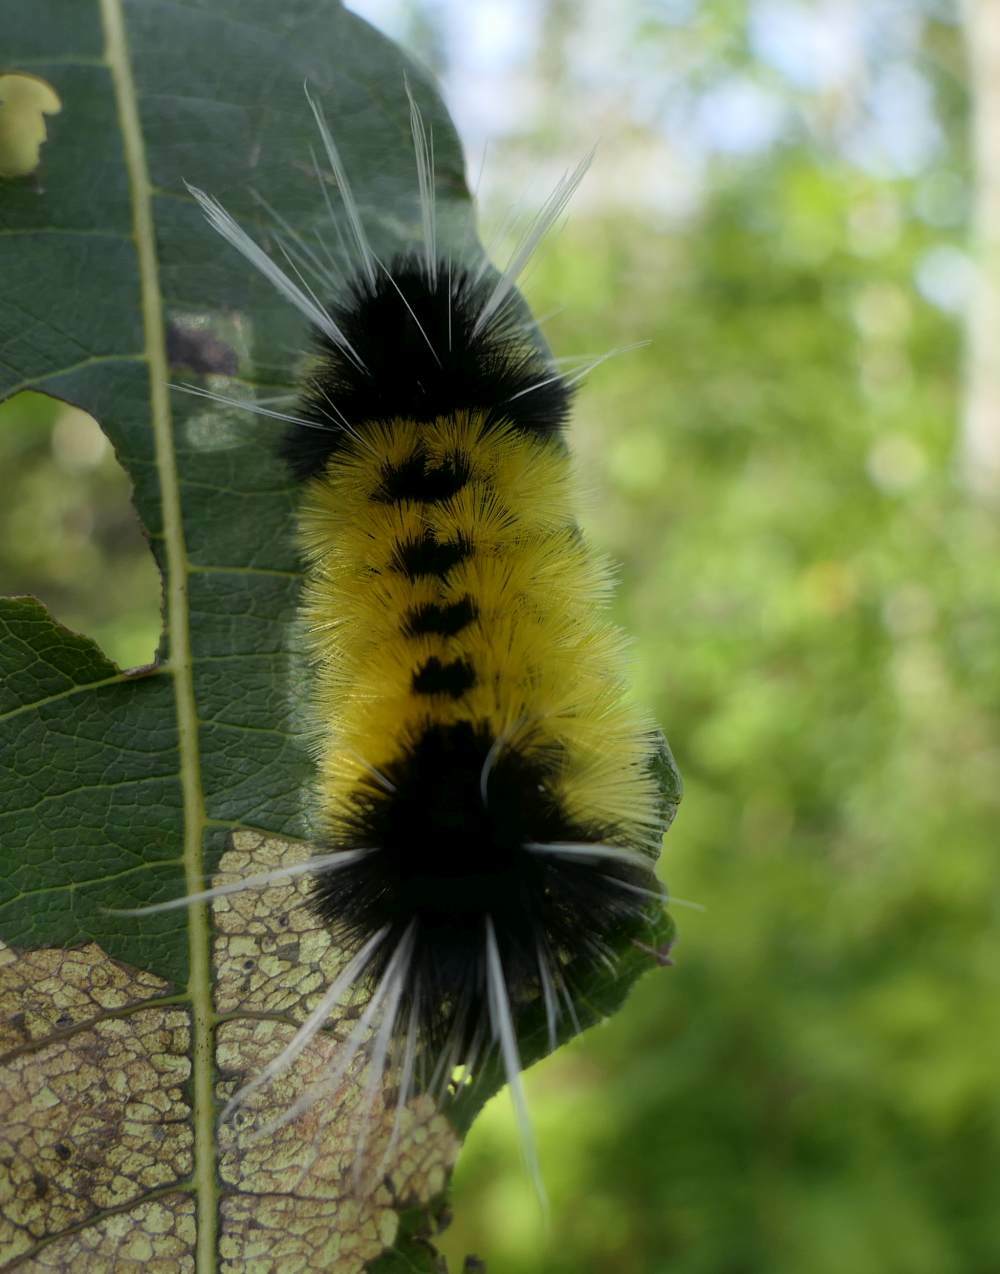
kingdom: Animalia
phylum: Arthropoda
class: Insecta
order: Lepidoptera
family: Erebidae
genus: Lophocampa
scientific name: Lophocampa maculata
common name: Spotted tussock moth
